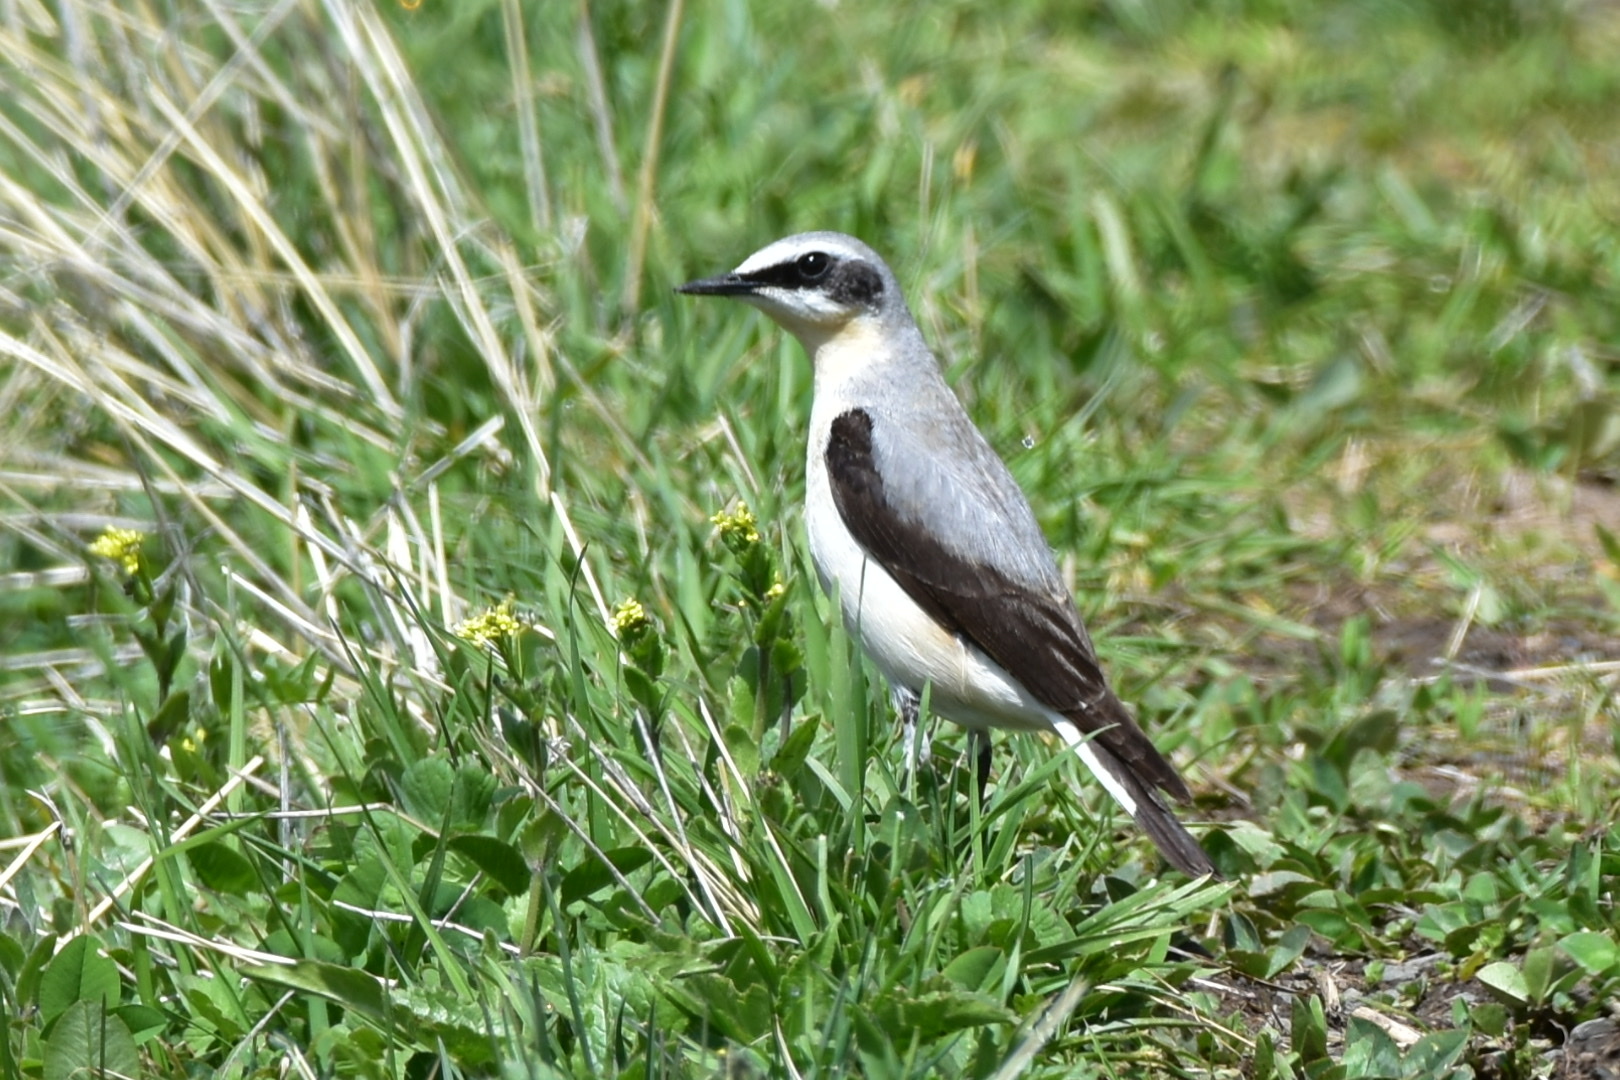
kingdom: Animalia
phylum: Chordata
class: Aves
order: Passeriformes
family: Muscicapidae
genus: Oenanthe
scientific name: Oenanthe oenanthe
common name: Northern wheatear
